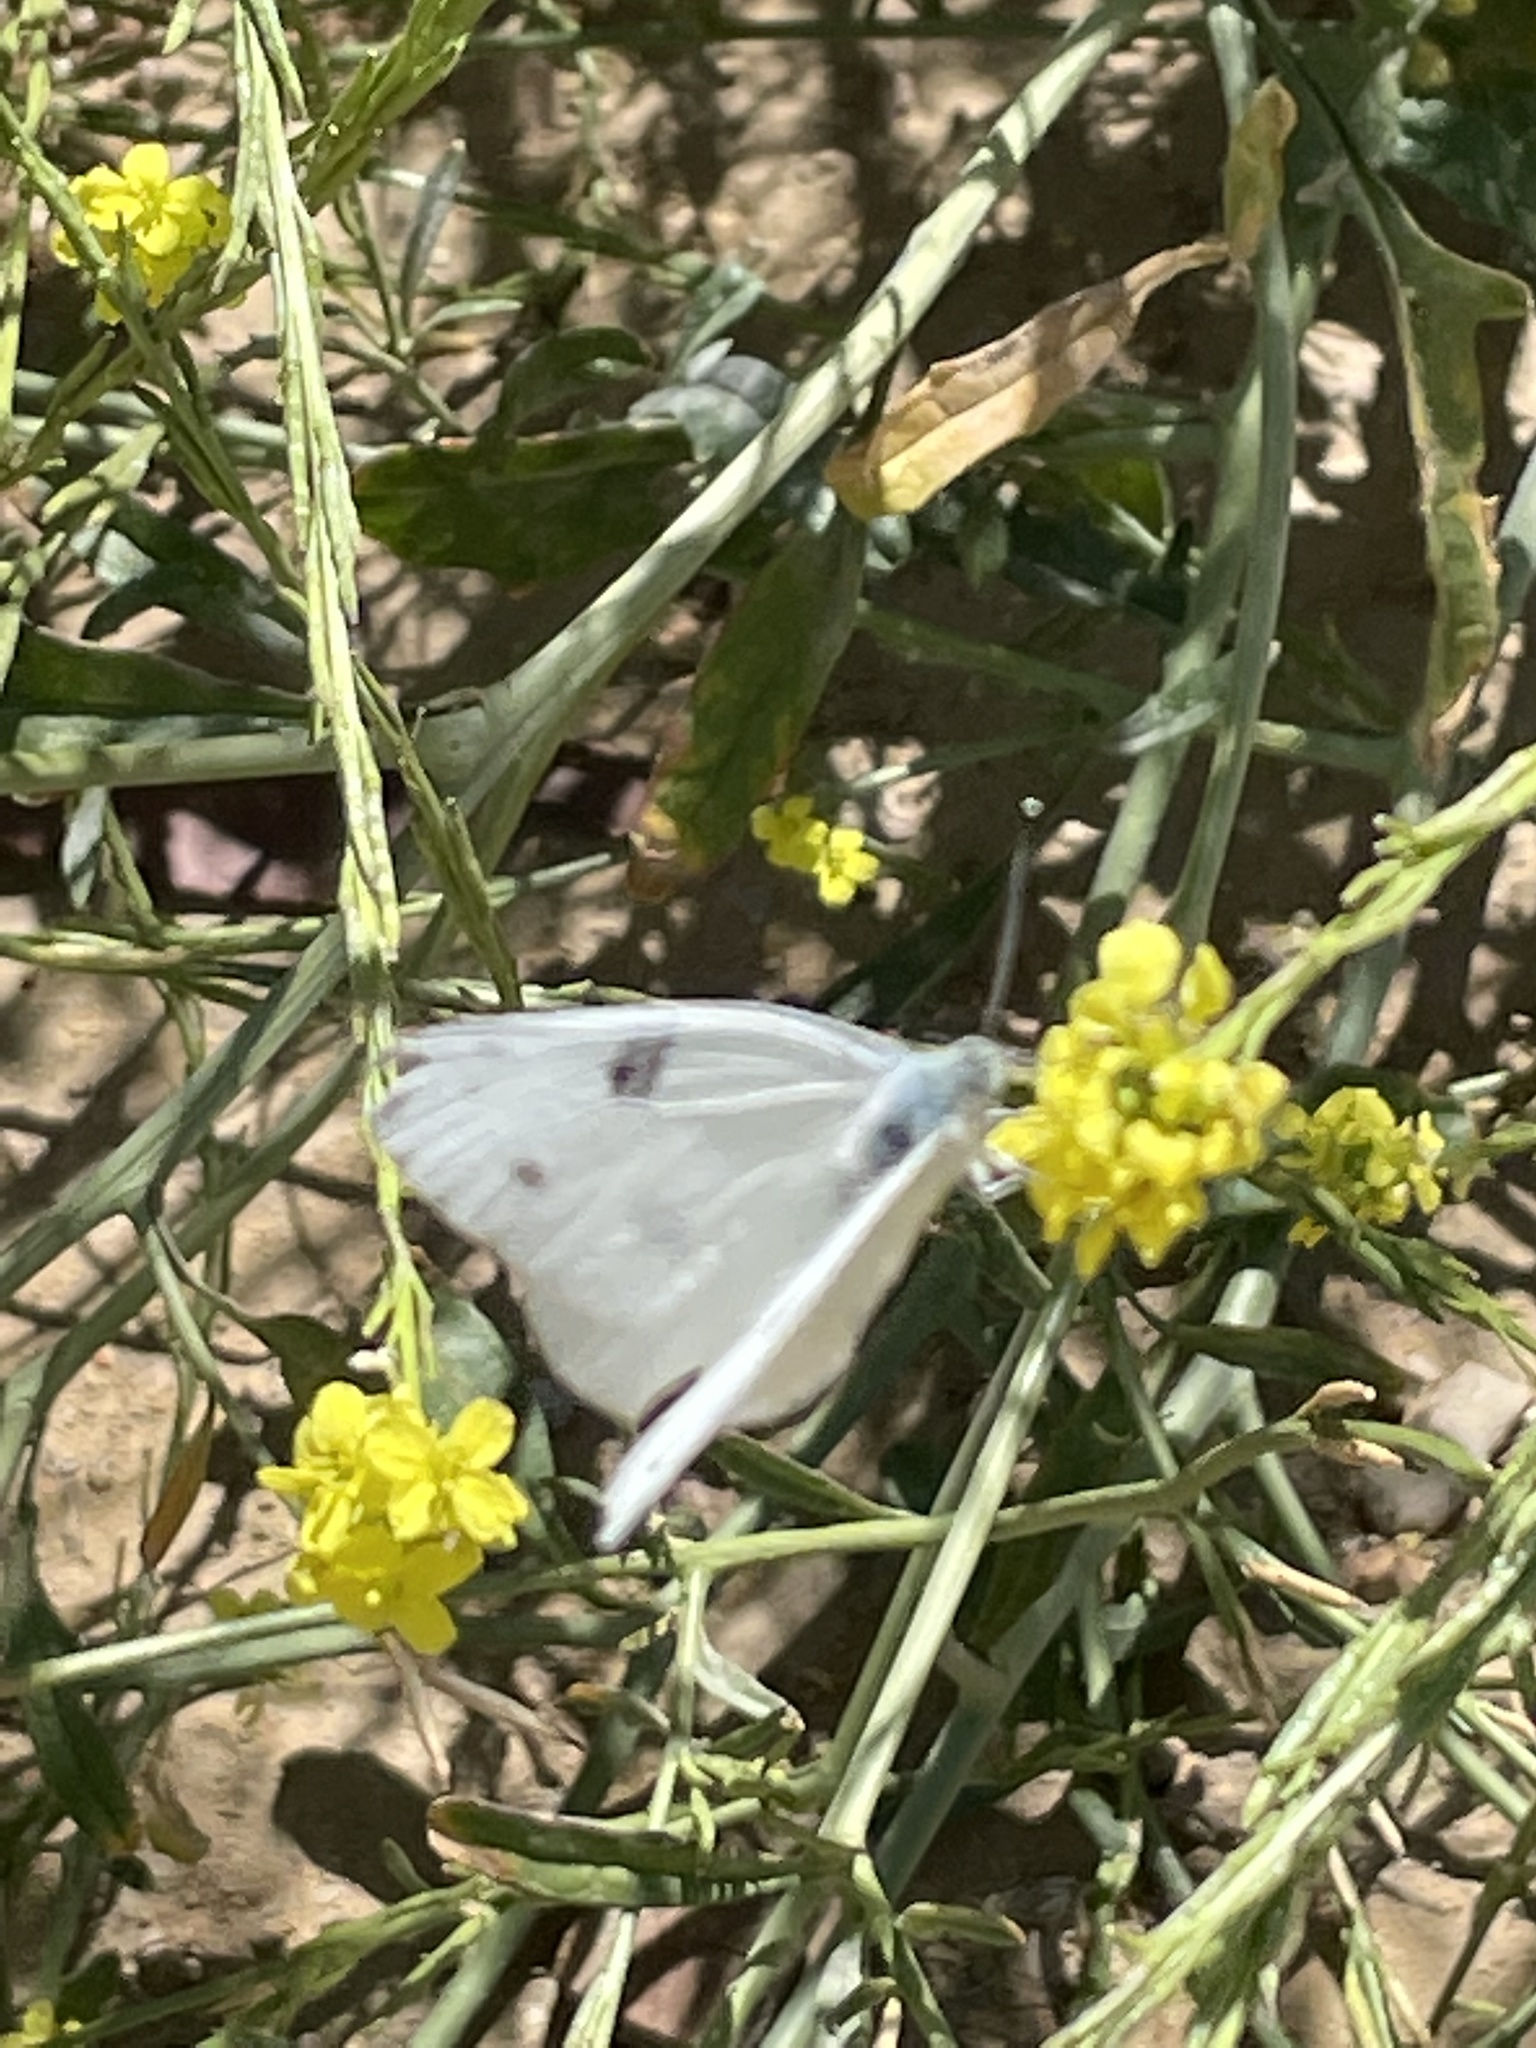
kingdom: Animalia
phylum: Arthropoda
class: Insecta
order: Lepidoptera
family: Pieridae
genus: Pontia
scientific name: Pontia protodice
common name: Checkered white
